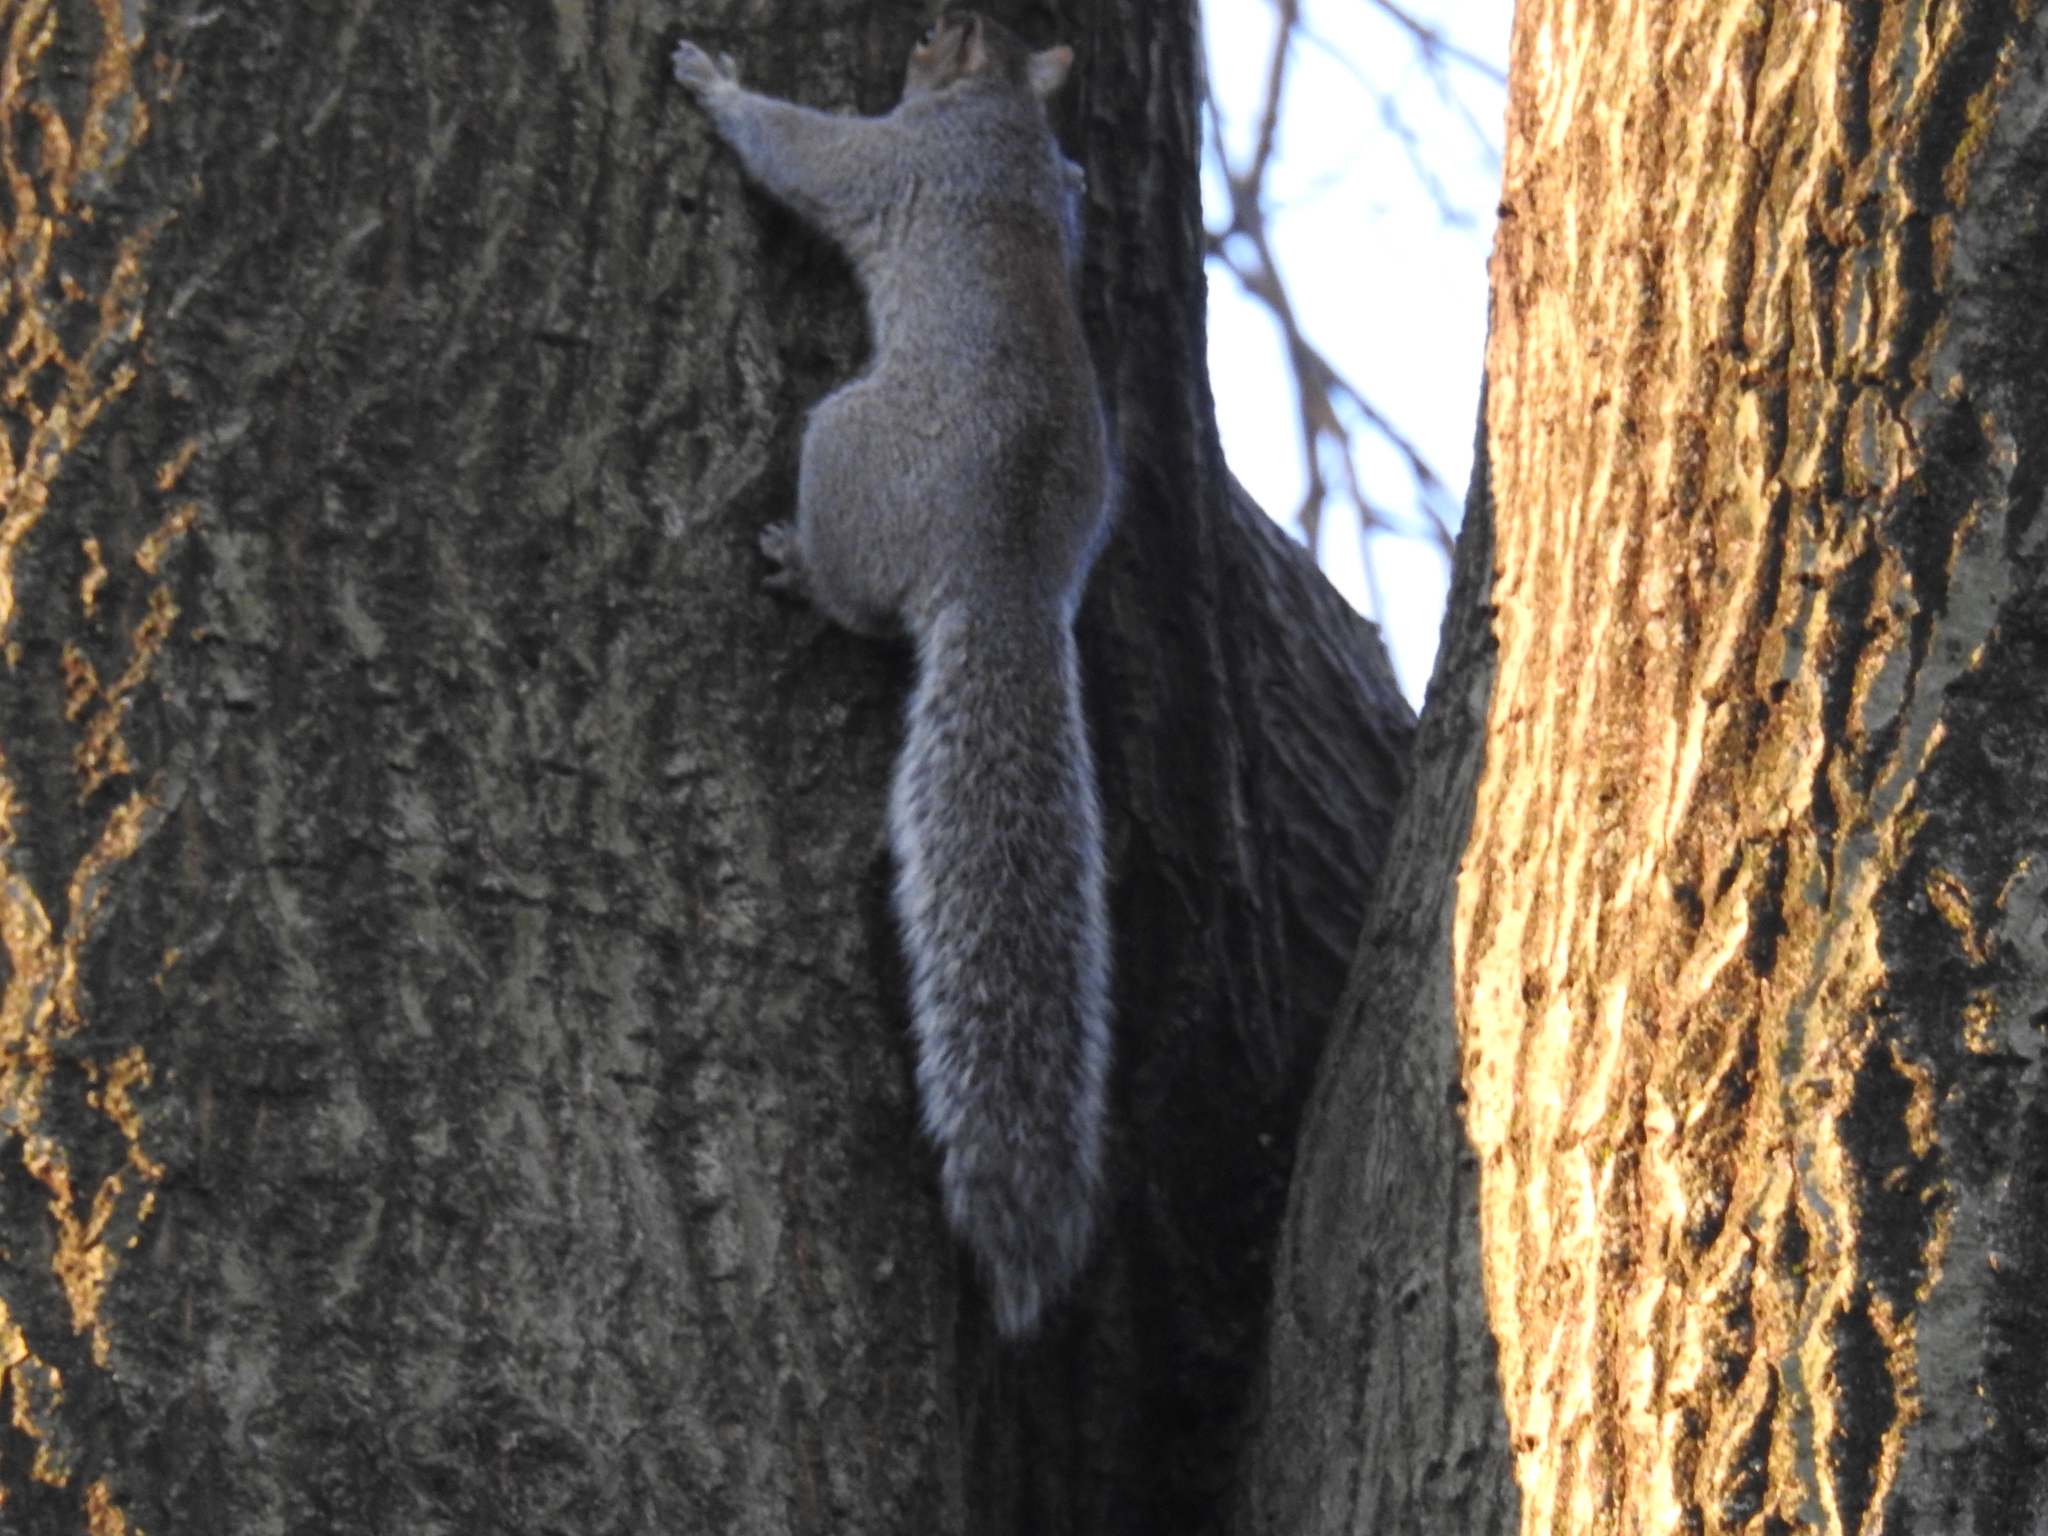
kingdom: Animalia
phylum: Chordata
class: Mammalia
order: Rodentia
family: Sciuridae
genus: Sciurus
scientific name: Sciurus carolinensis
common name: Eastern gray squirrel
